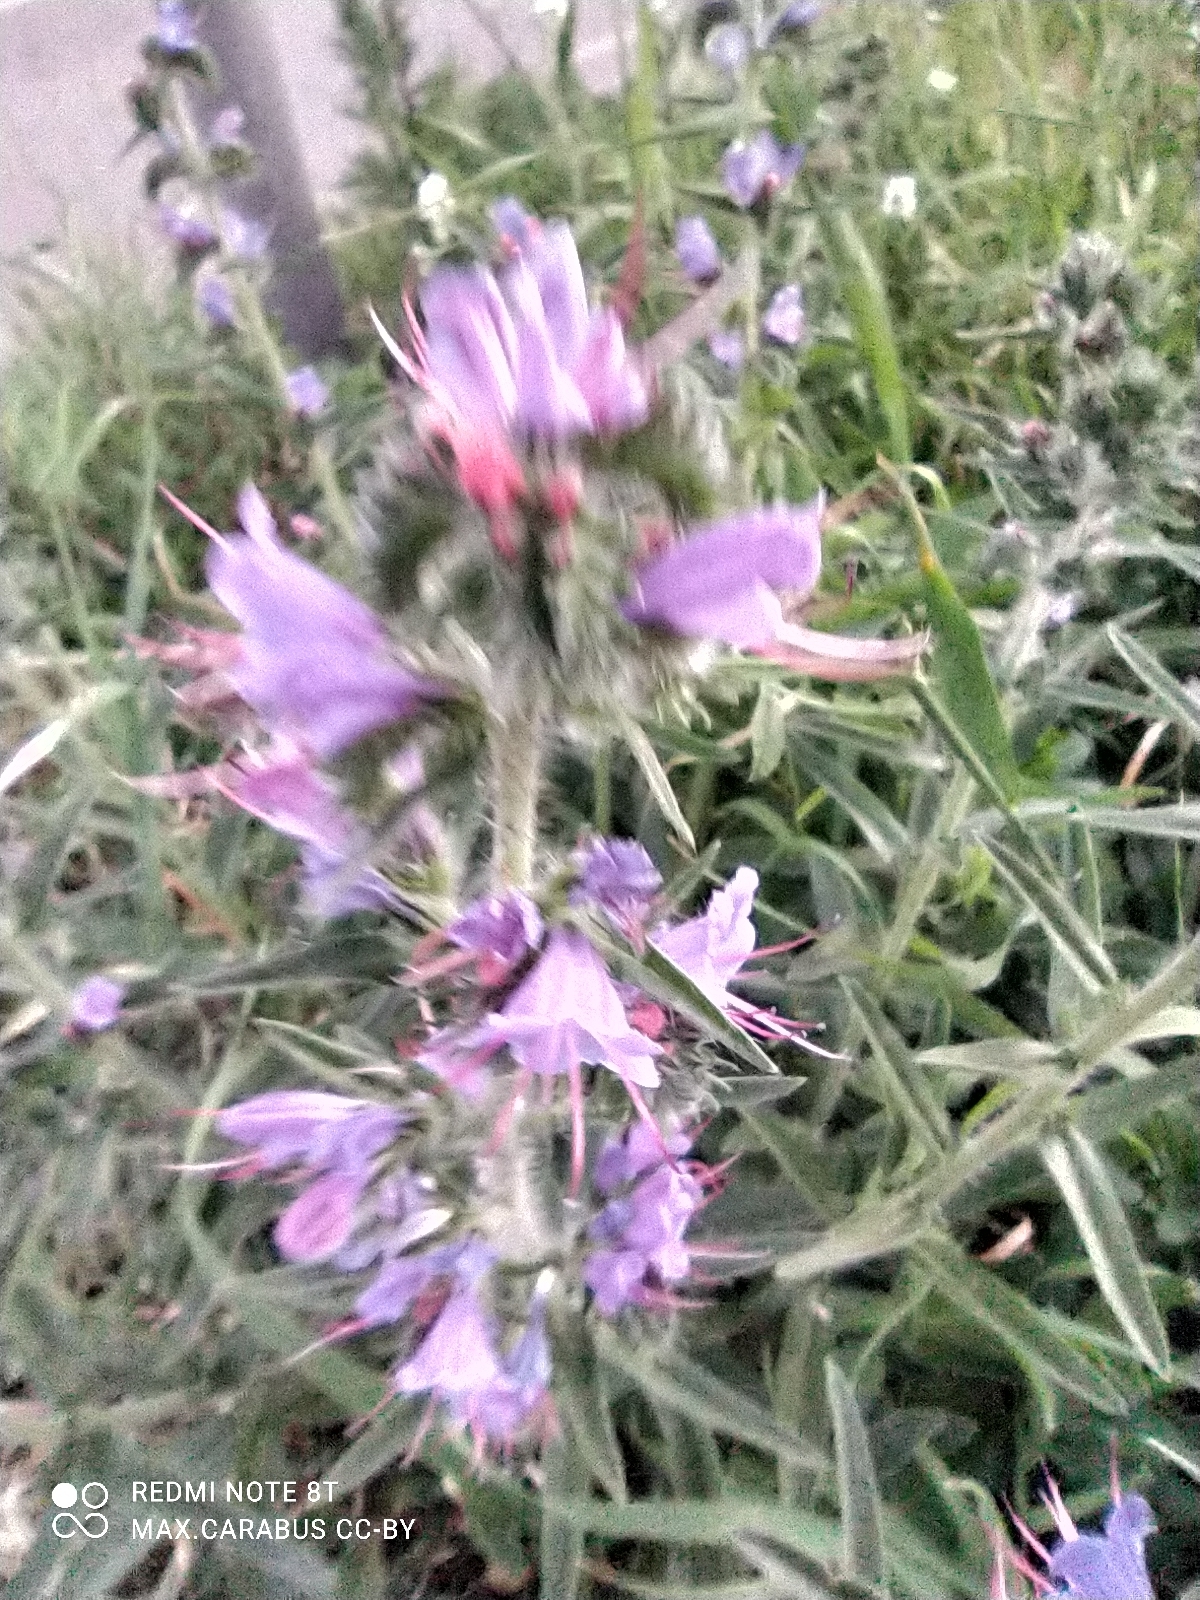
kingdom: Plantae
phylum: Tracheophyta
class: Magnoliopsida
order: Boraginales
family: Boraginaceae
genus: Echium
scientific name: Echium vulgare
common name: Common viper's bugloss
